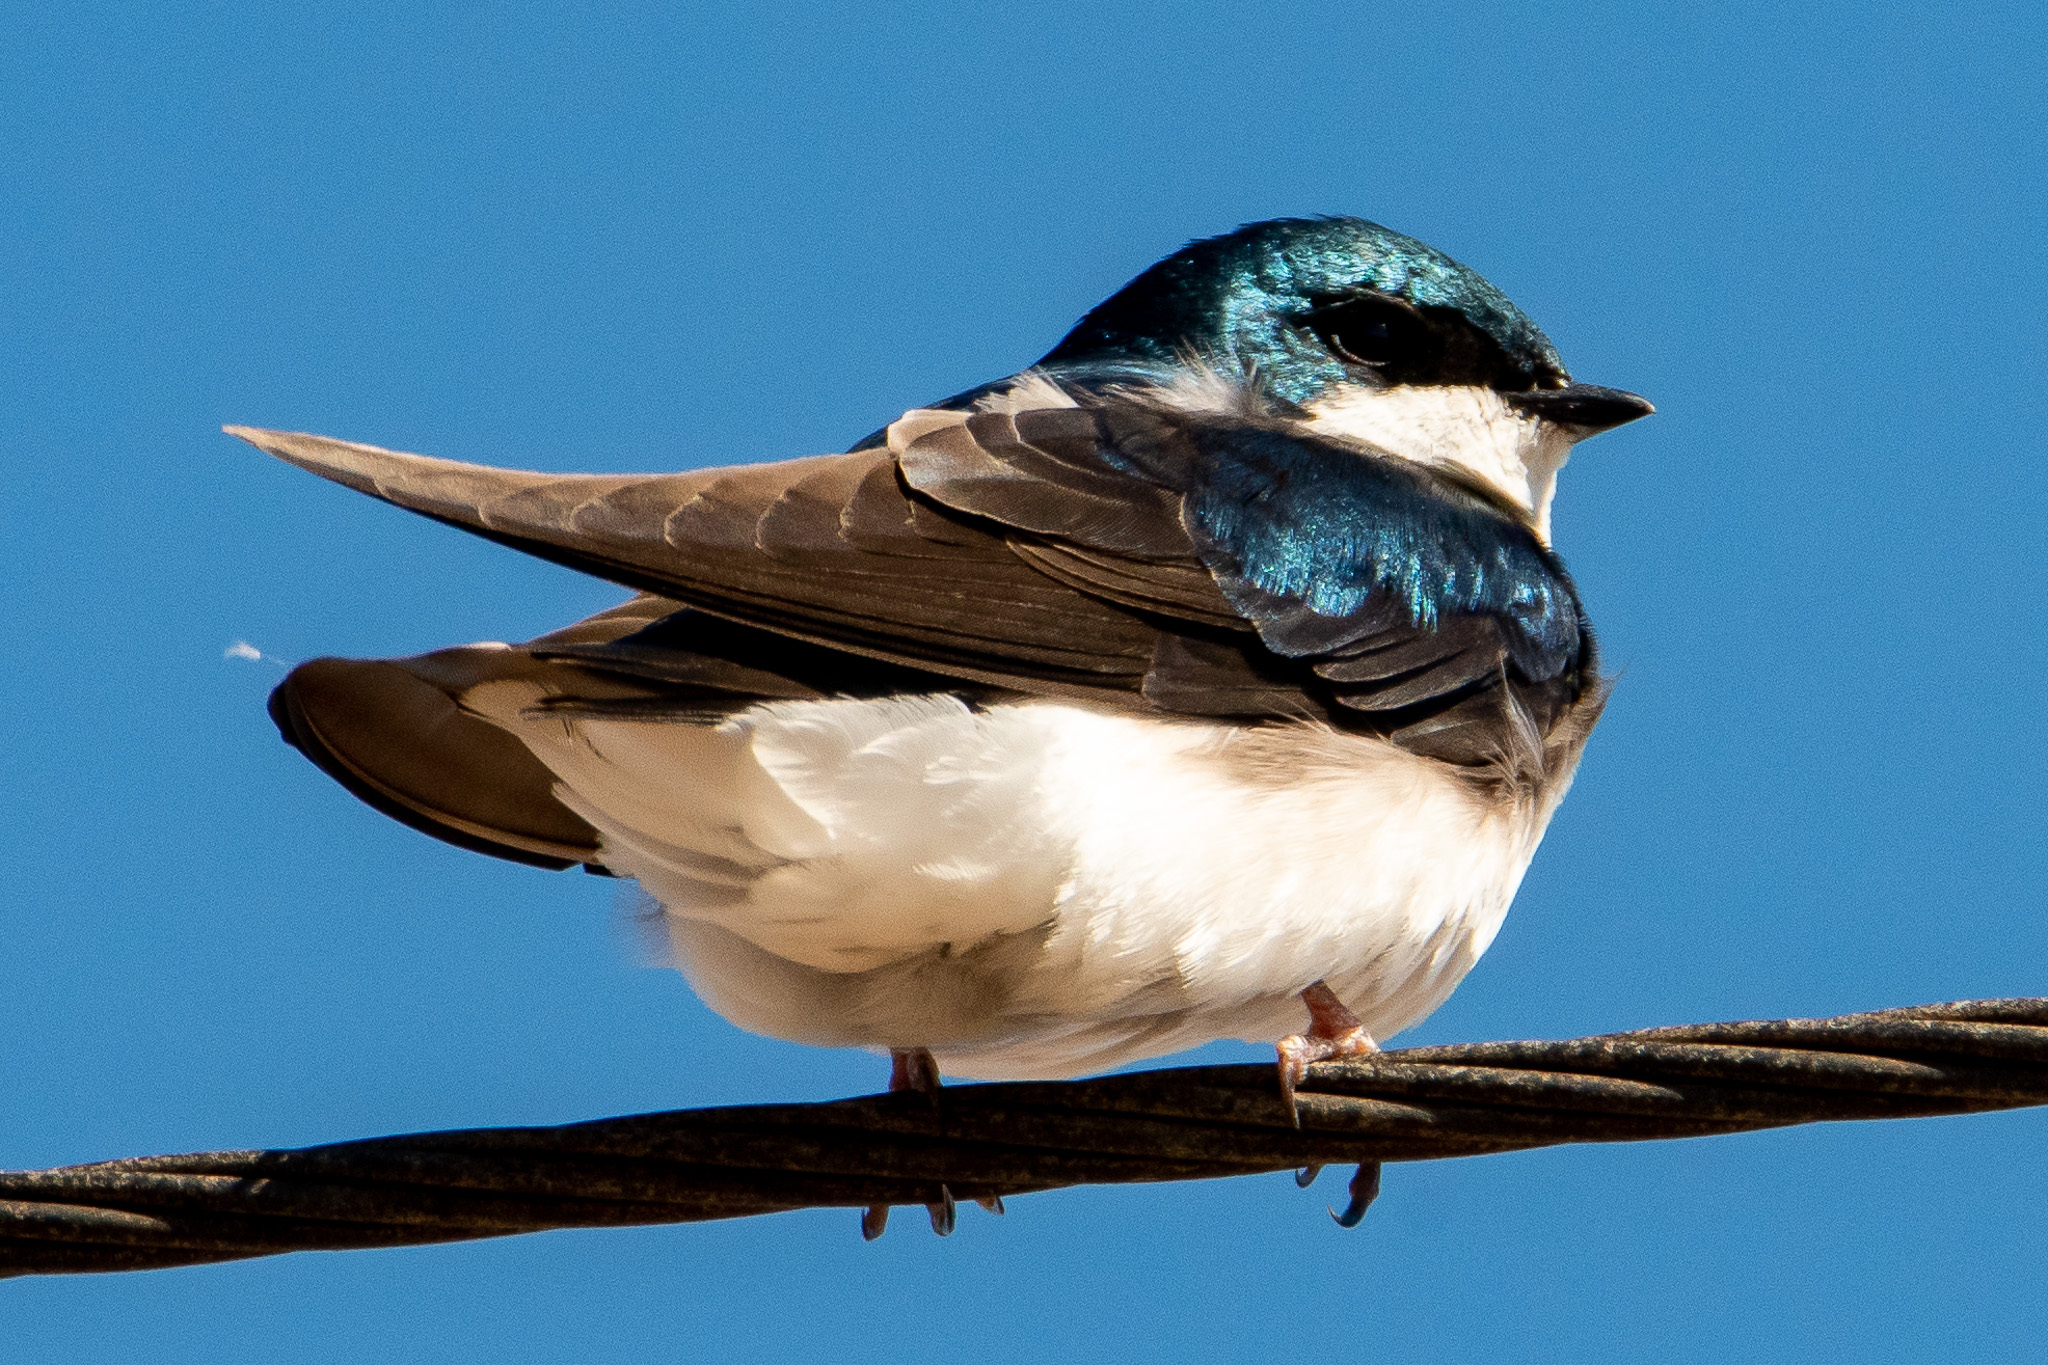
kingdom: Animalia
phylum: Chordata
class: Aves
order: Passeriformes
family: Hirundinidae
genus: Tachycineta
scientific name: Tachycineta bicolor
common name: Tree swallow
